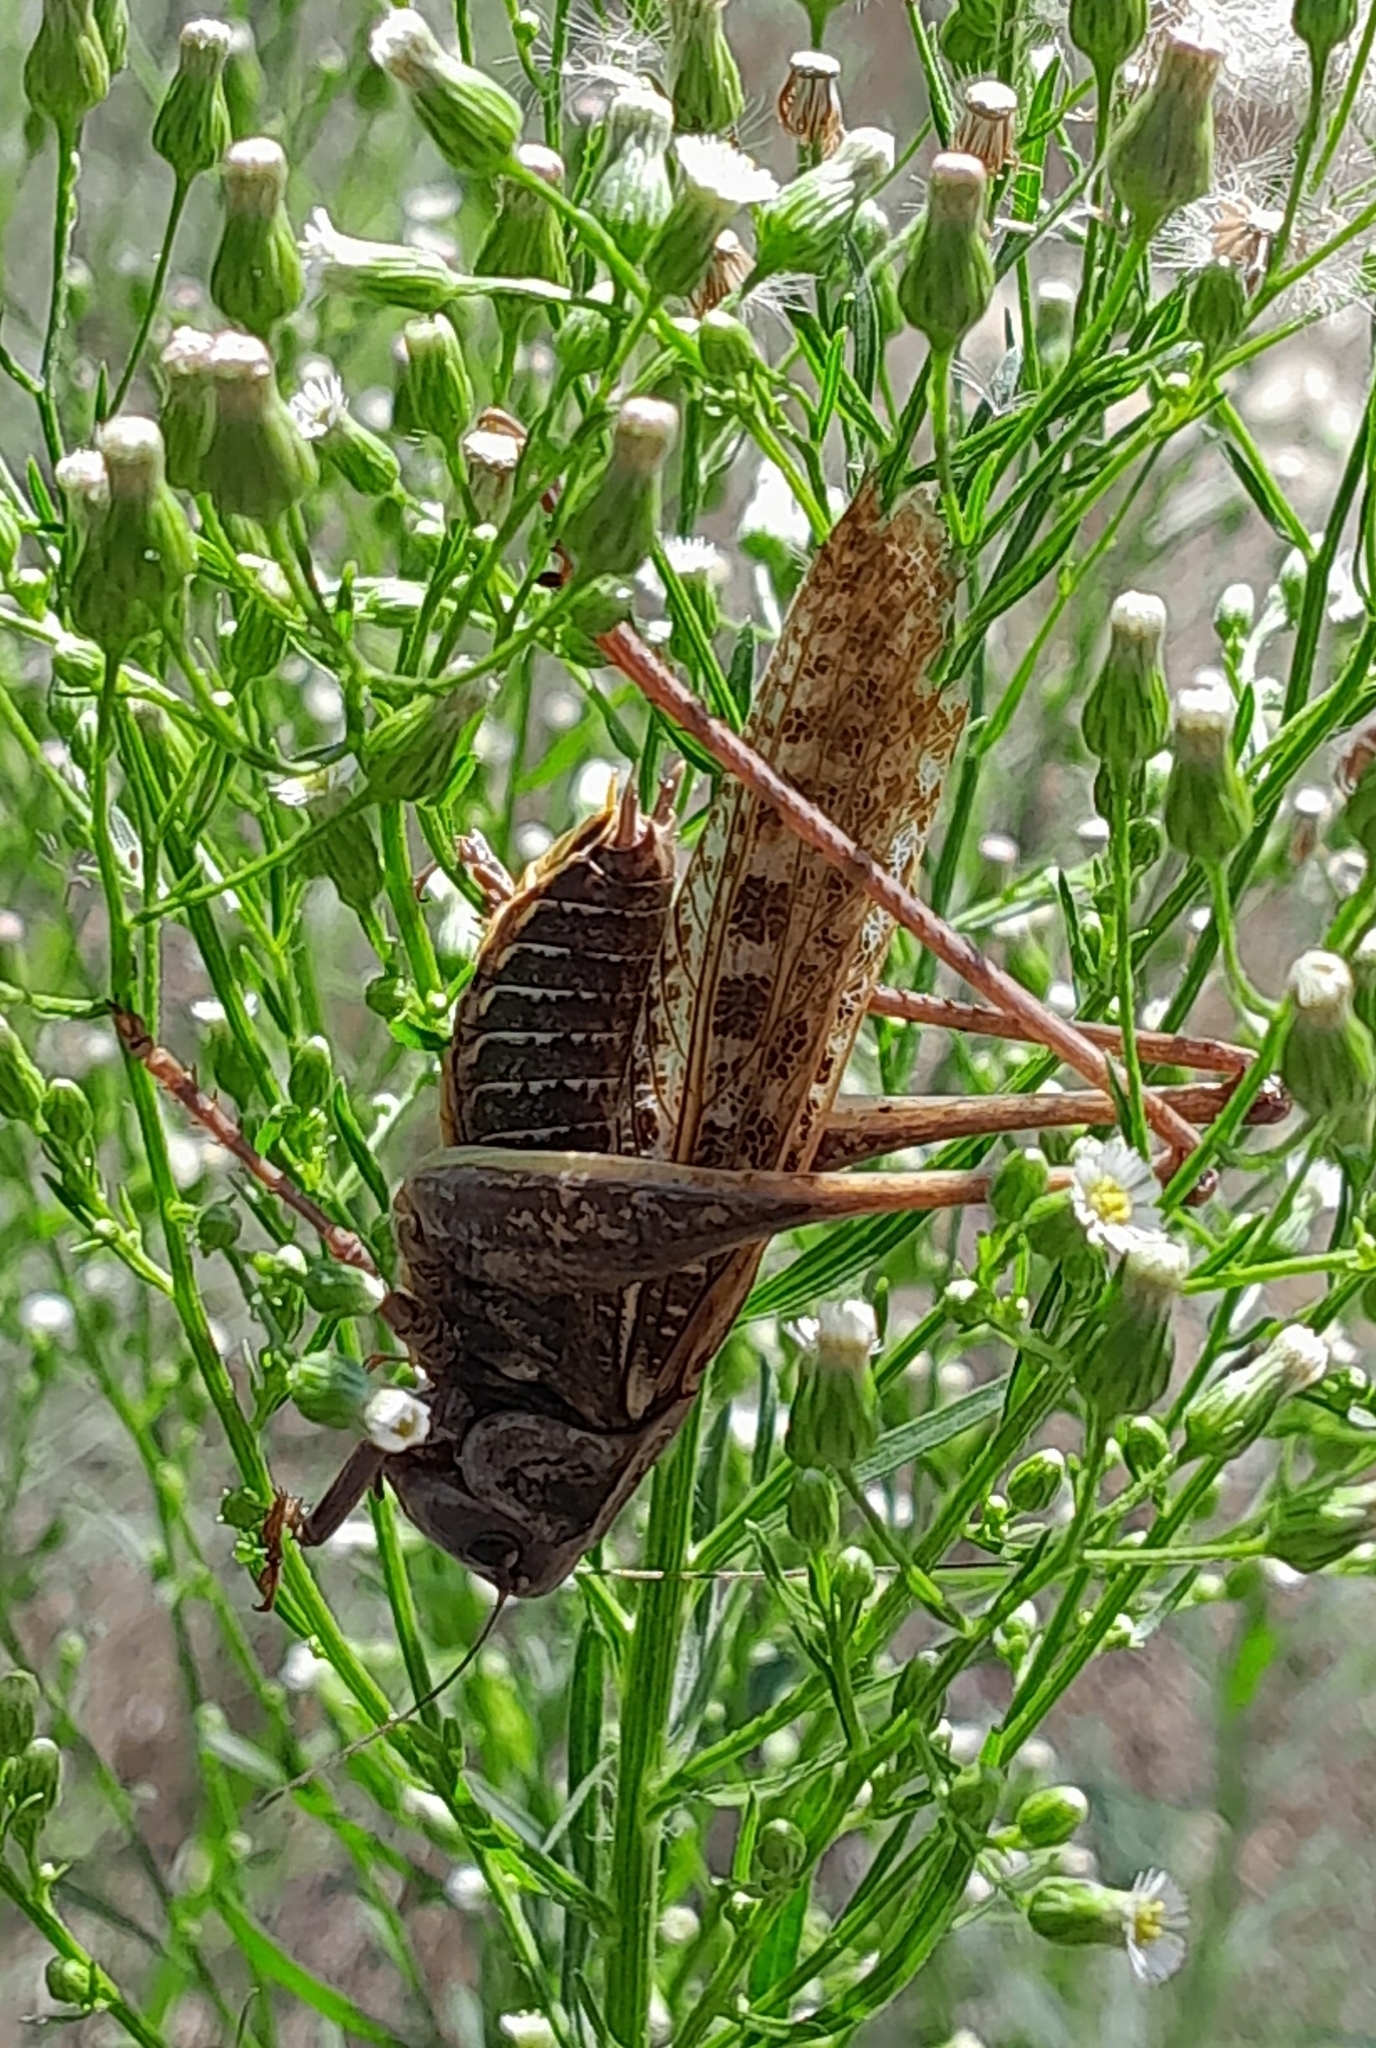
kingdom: Animalia
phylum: Arthropoda
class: Insecta
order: Orthoptera
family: Tettigoniidae
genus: Decticus
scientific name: Decticus verrucivorus
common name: Wart-biter
